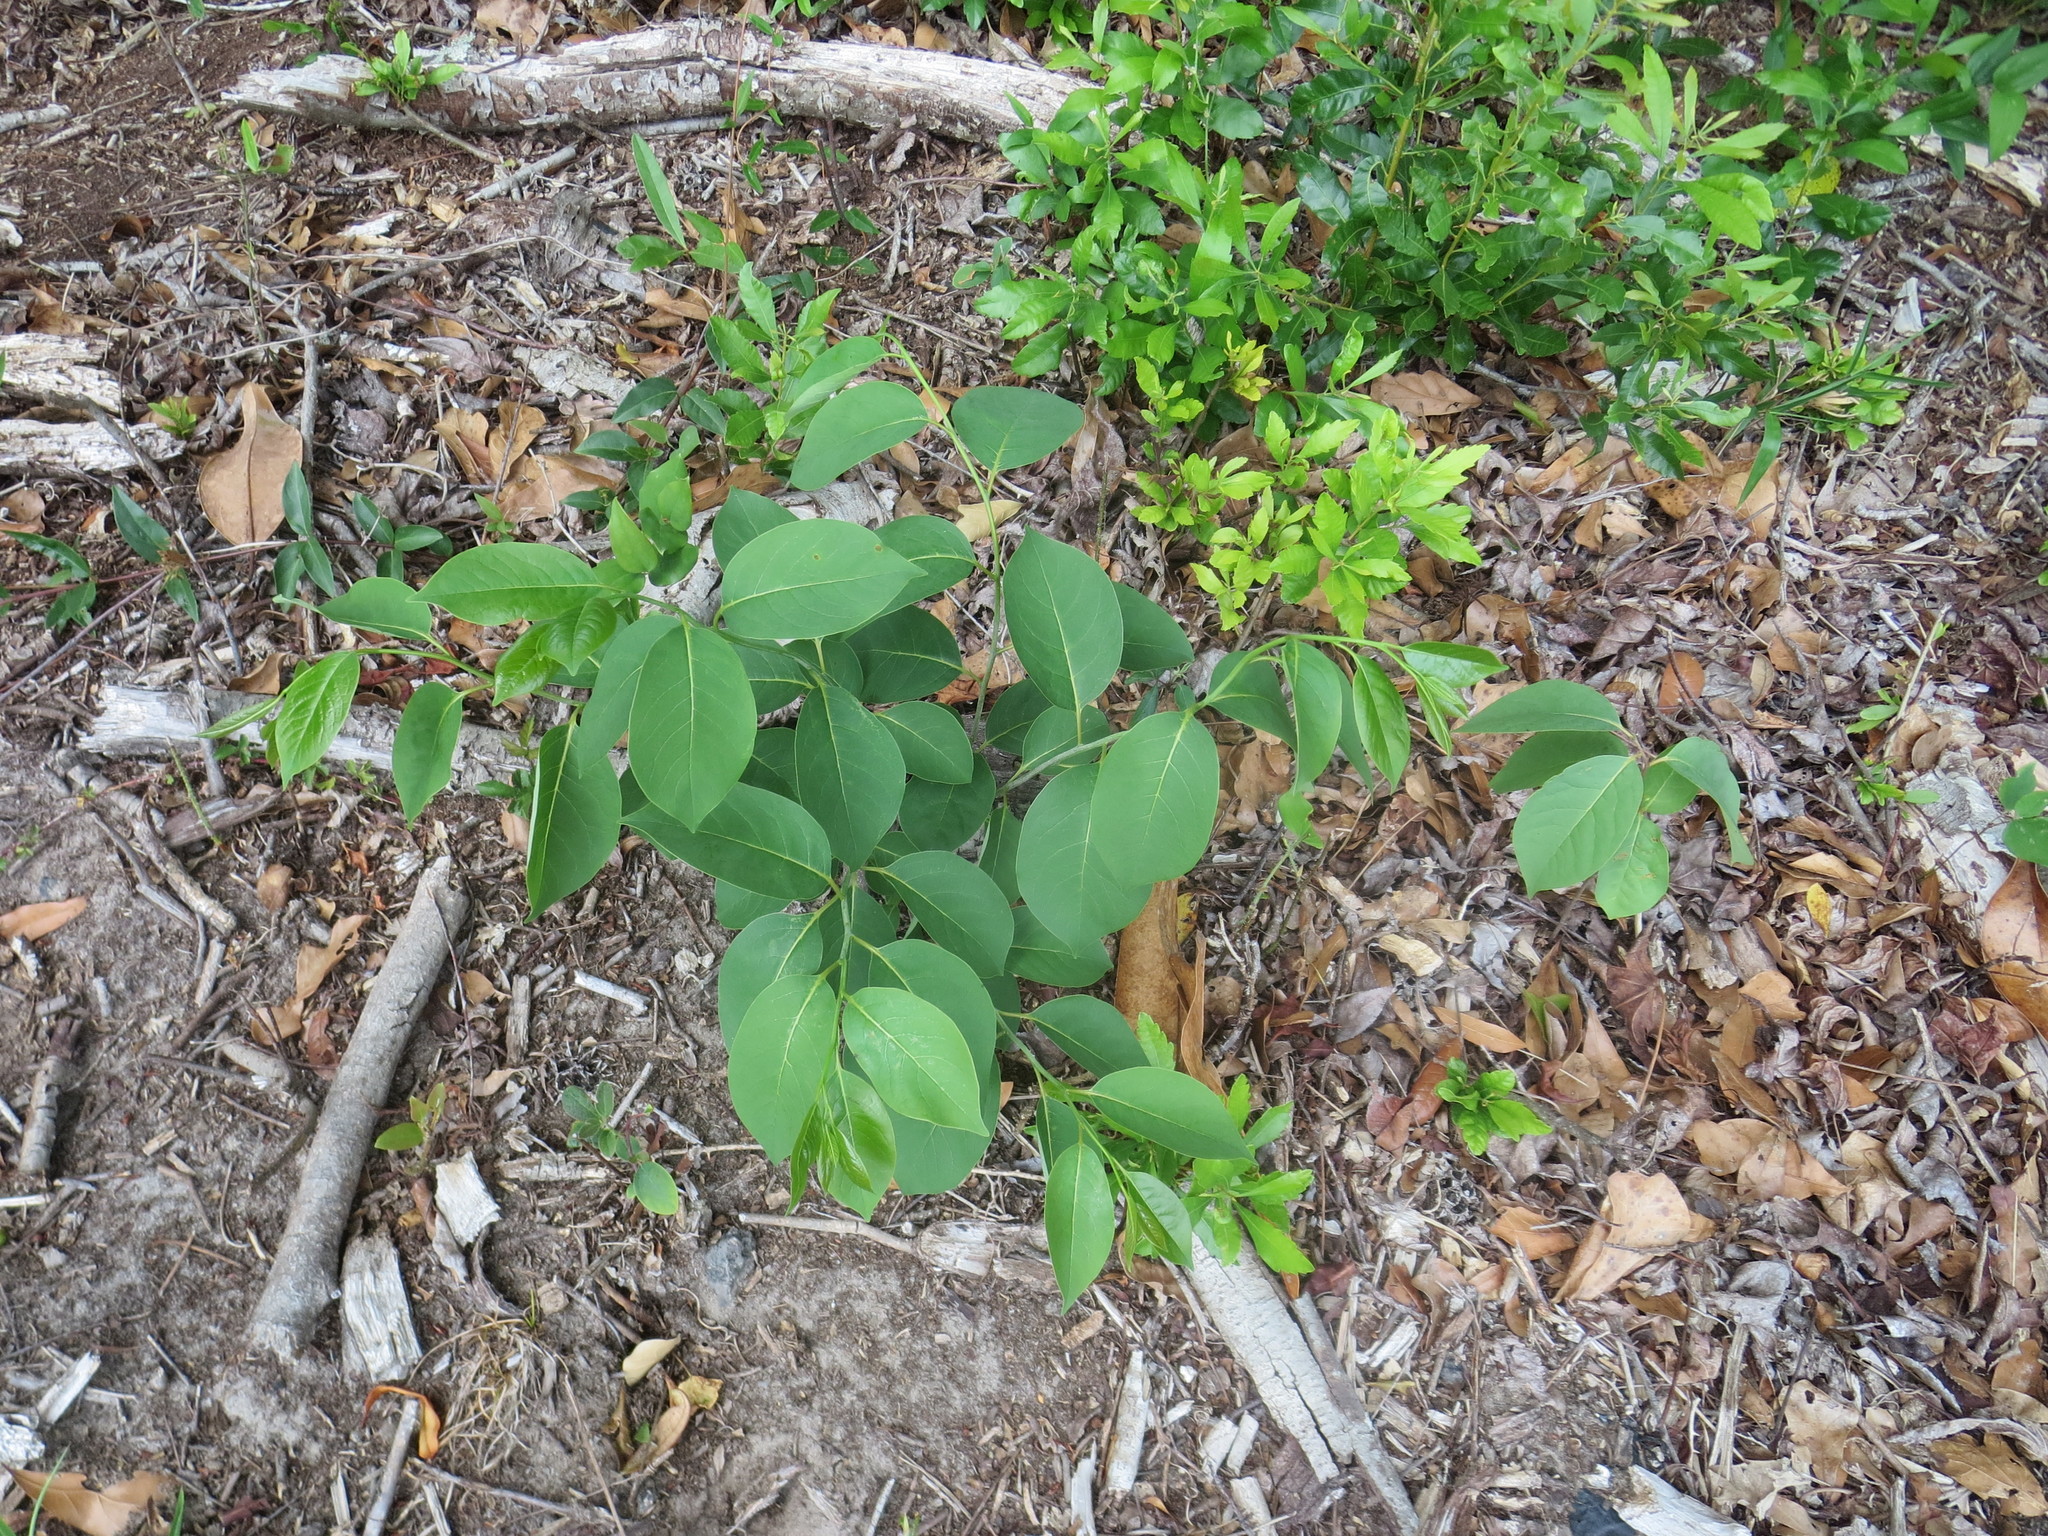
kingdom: Plantae
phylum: Tracheophyta
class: Magnoliopsida
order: Ericales
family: Ebenaceae
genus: Diospyros
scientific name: Diospyros virginiana
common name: Persimmon
